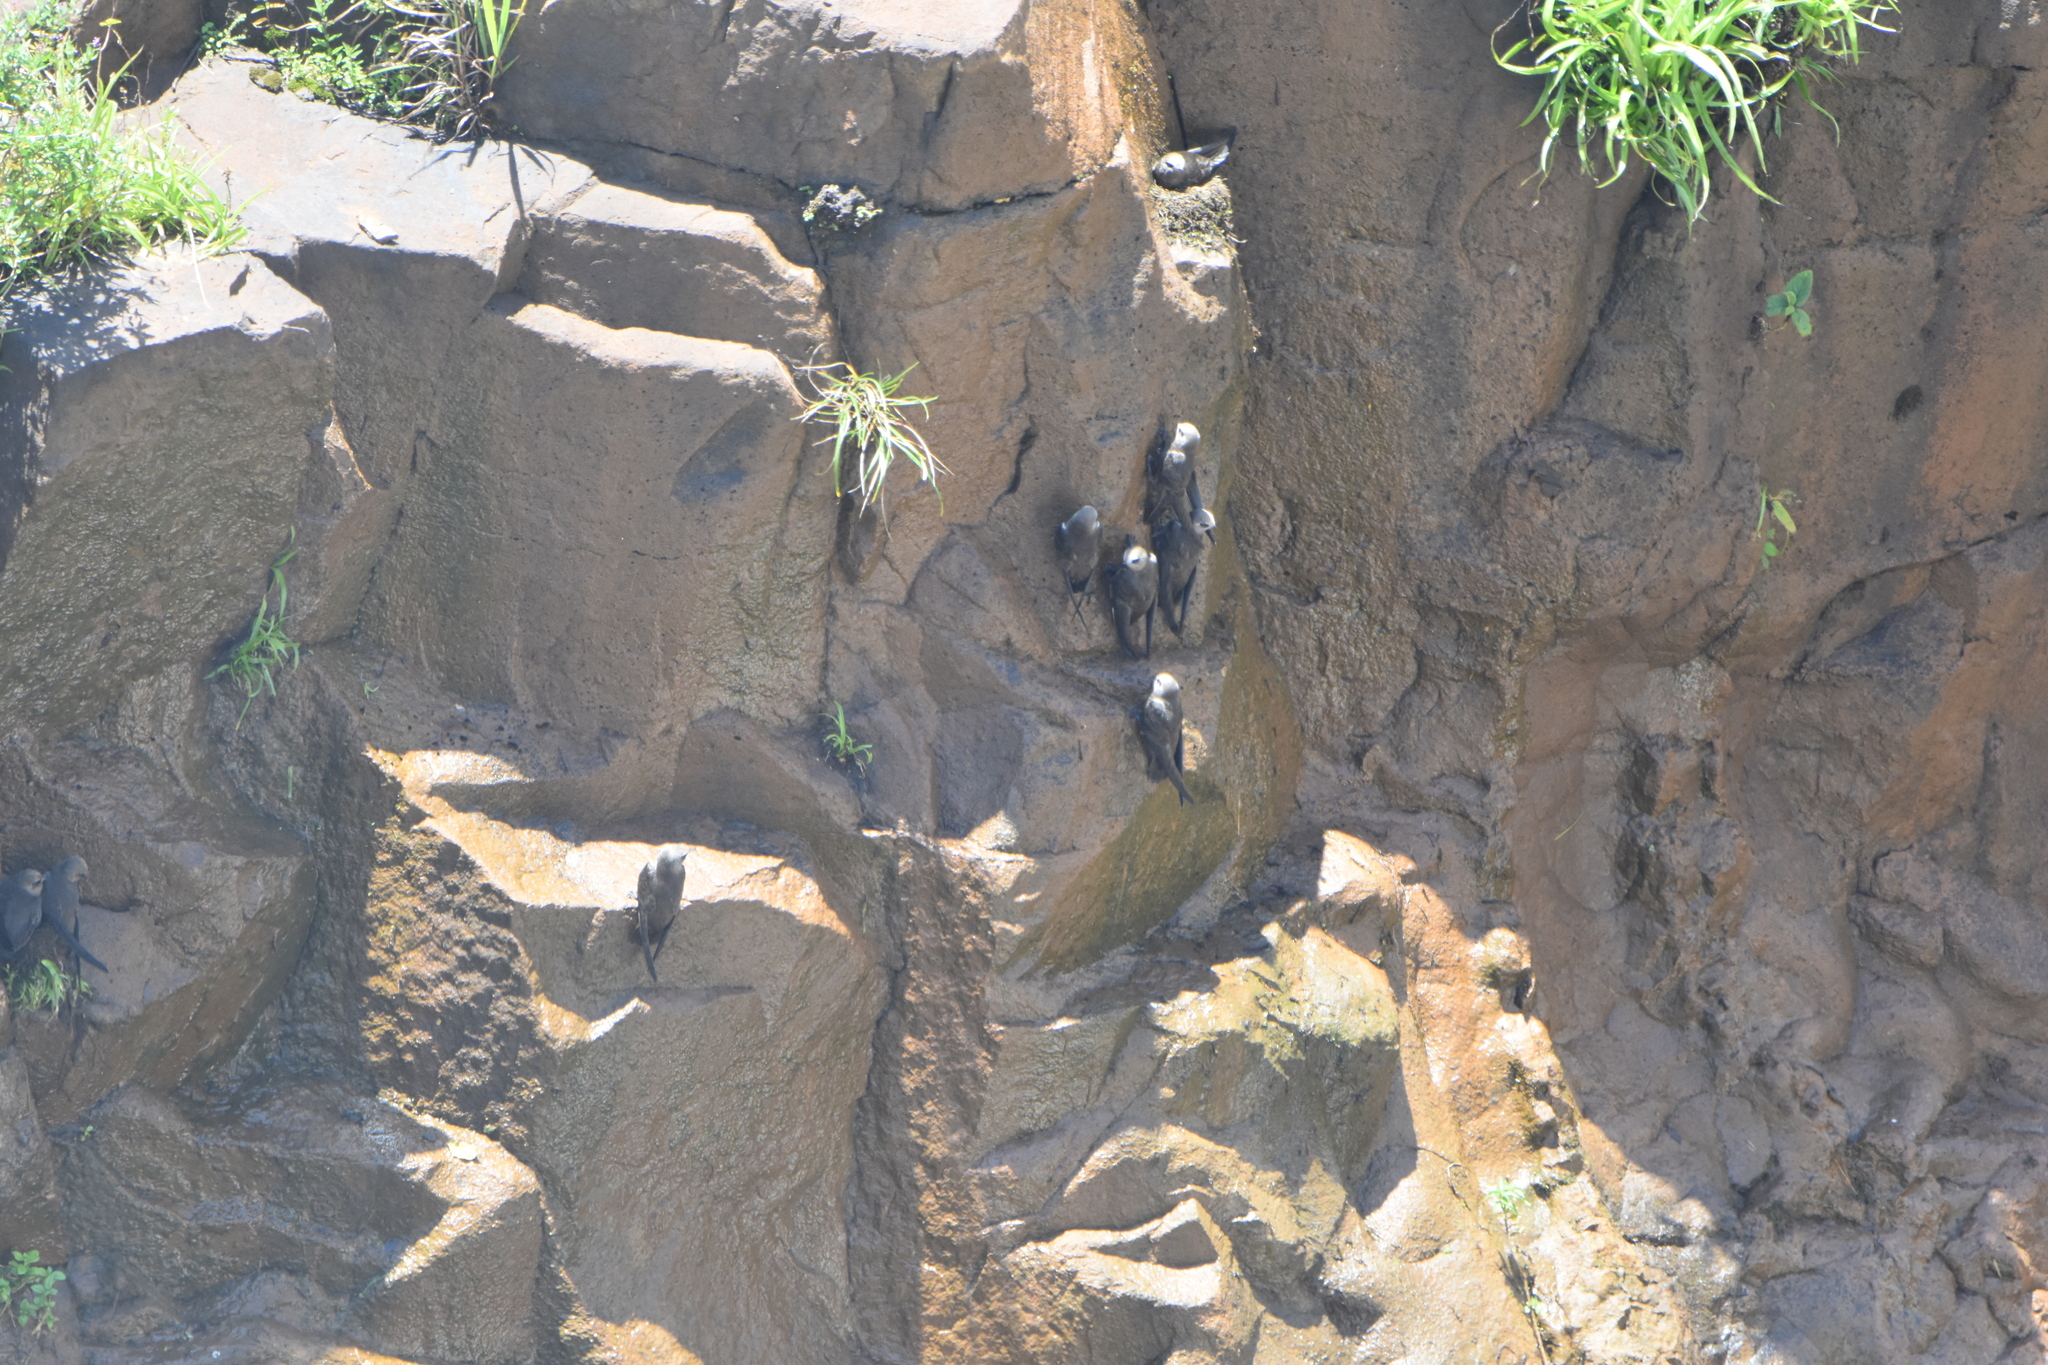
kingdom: Animalia
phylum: Chordata
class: Aves
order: Apodiformes
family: Apodidae
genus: Cypseloides
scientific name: Cypseloides senex
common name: Great dusky swift
